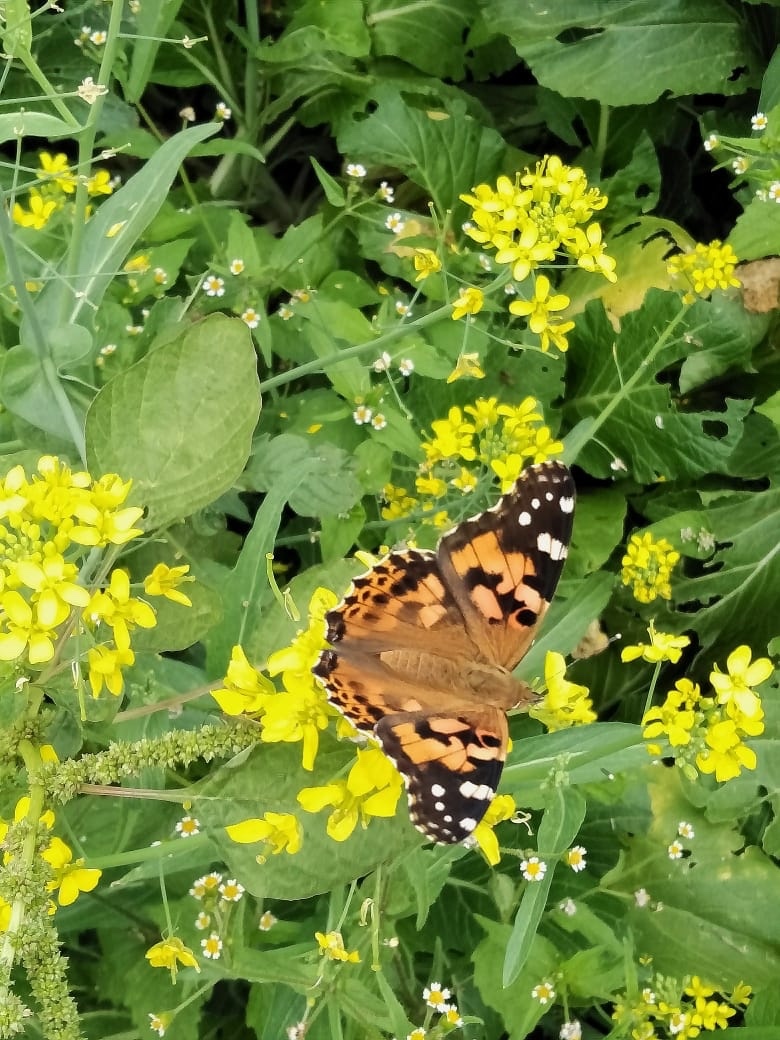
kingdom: Animalia
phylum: Arthropoda
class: Insecta
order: Lepidoptera
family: Nymphalidae
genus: Vanessa
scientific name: Vanessa cardui
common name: Painted lady
